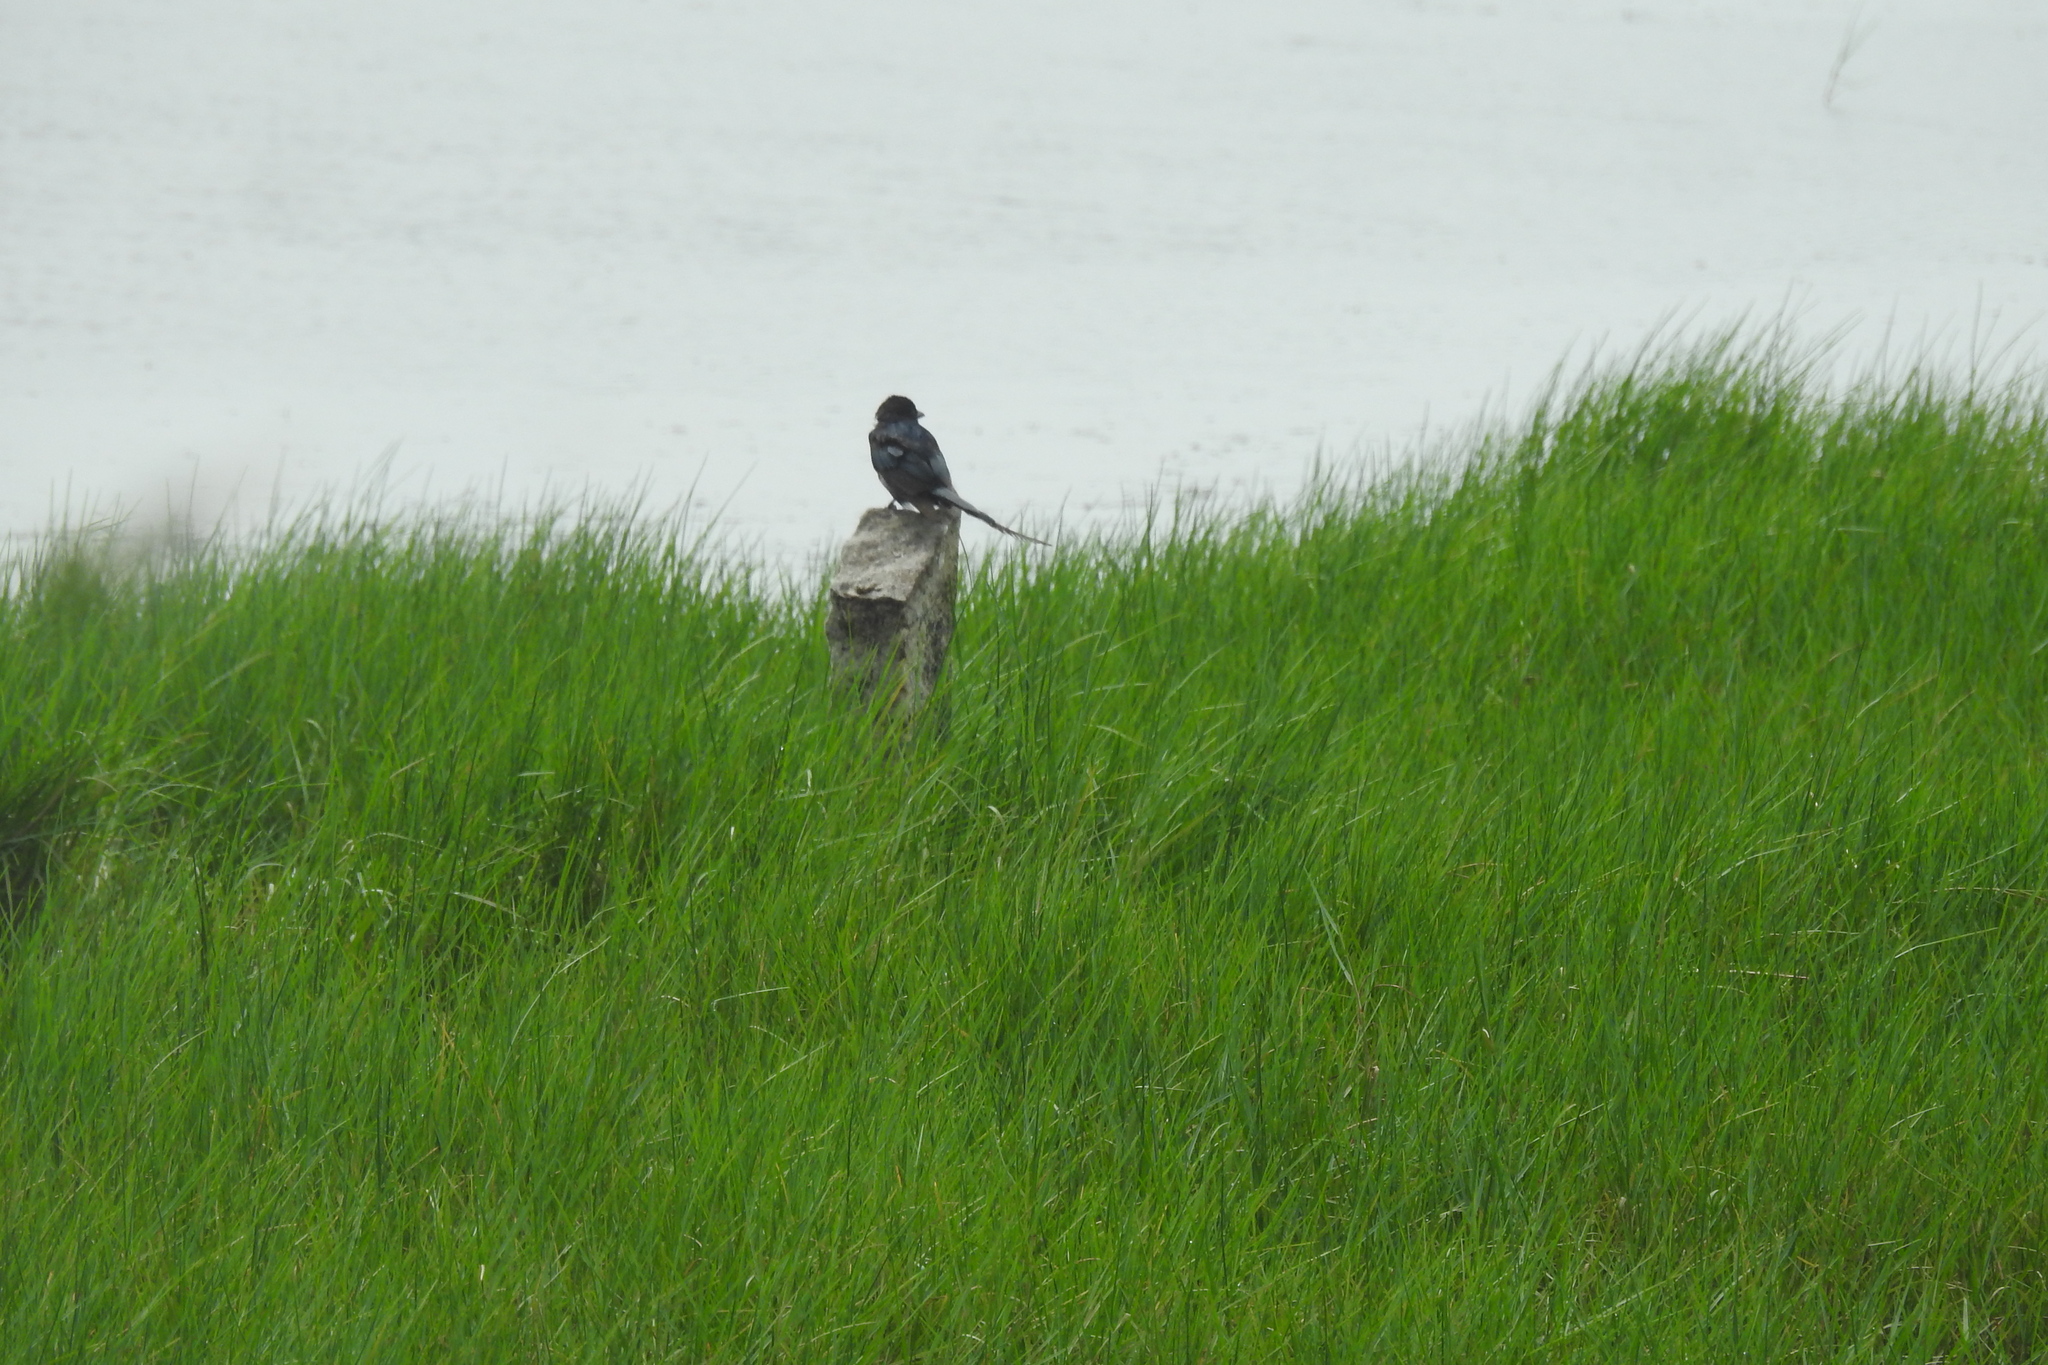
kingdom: Animalia
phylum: Chordata
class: Aves
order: Passeriformes
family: Dicruridae
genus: Dicrurus
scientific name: Dicrurus macrocercus
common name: Black drongo
